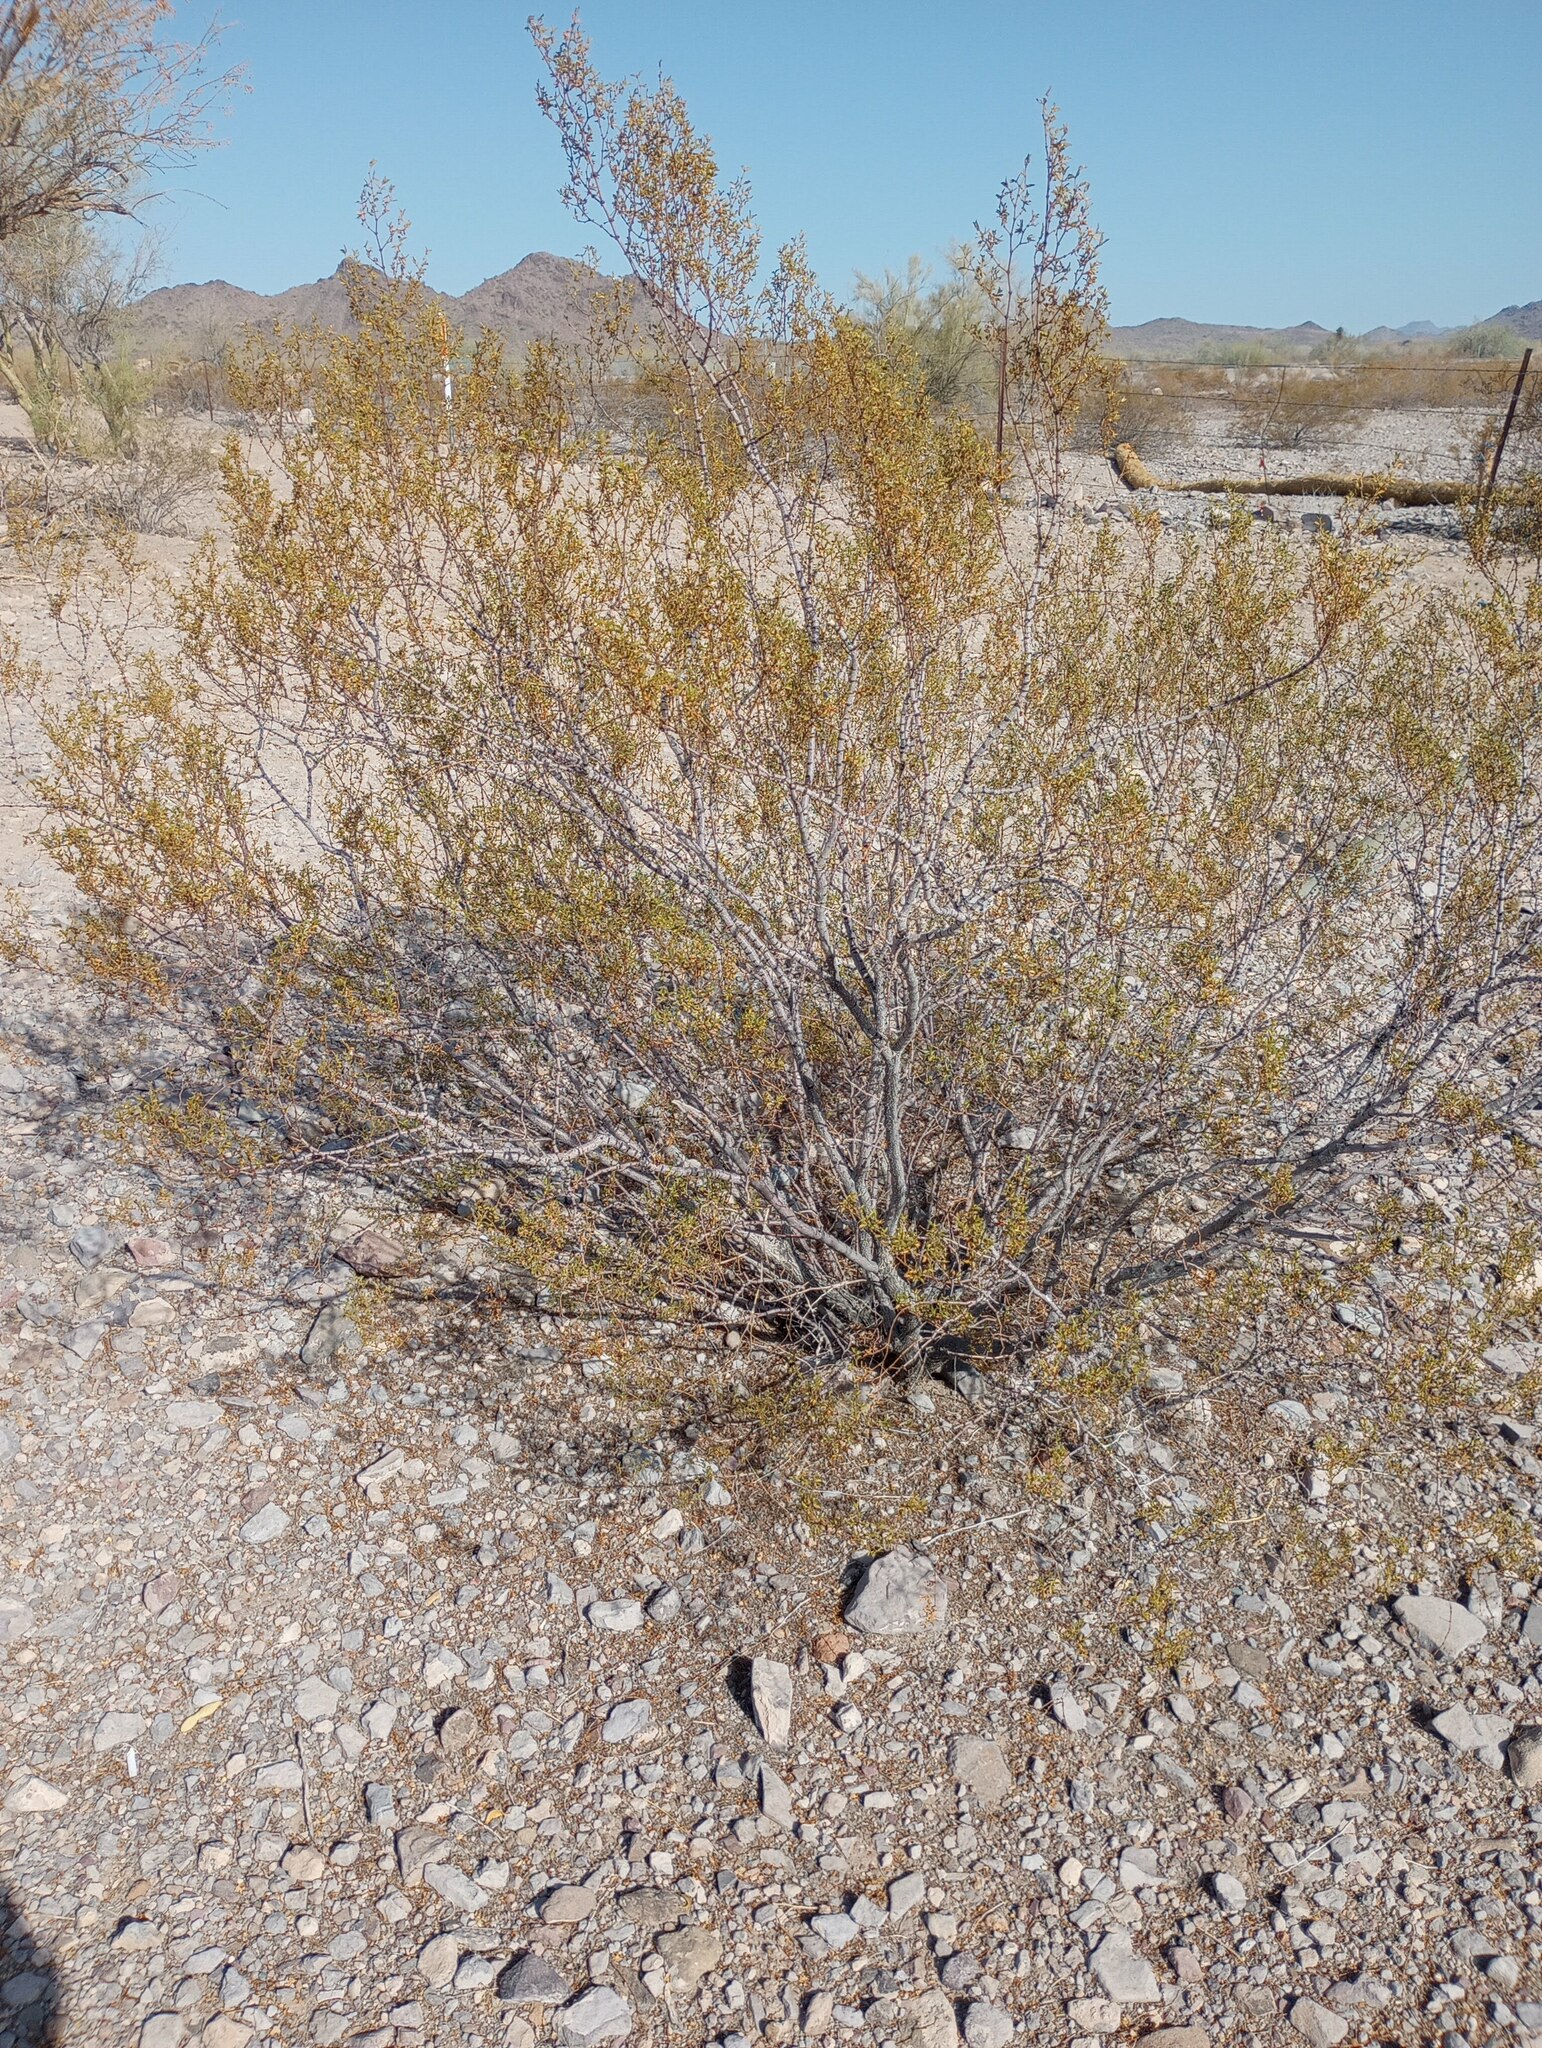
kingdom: Plantae
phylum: Tracheophyta
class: Magnoliopsida
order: Zygophyllales
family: Zygophyllaceae
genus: Larrea
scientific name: Larrea tridentata
